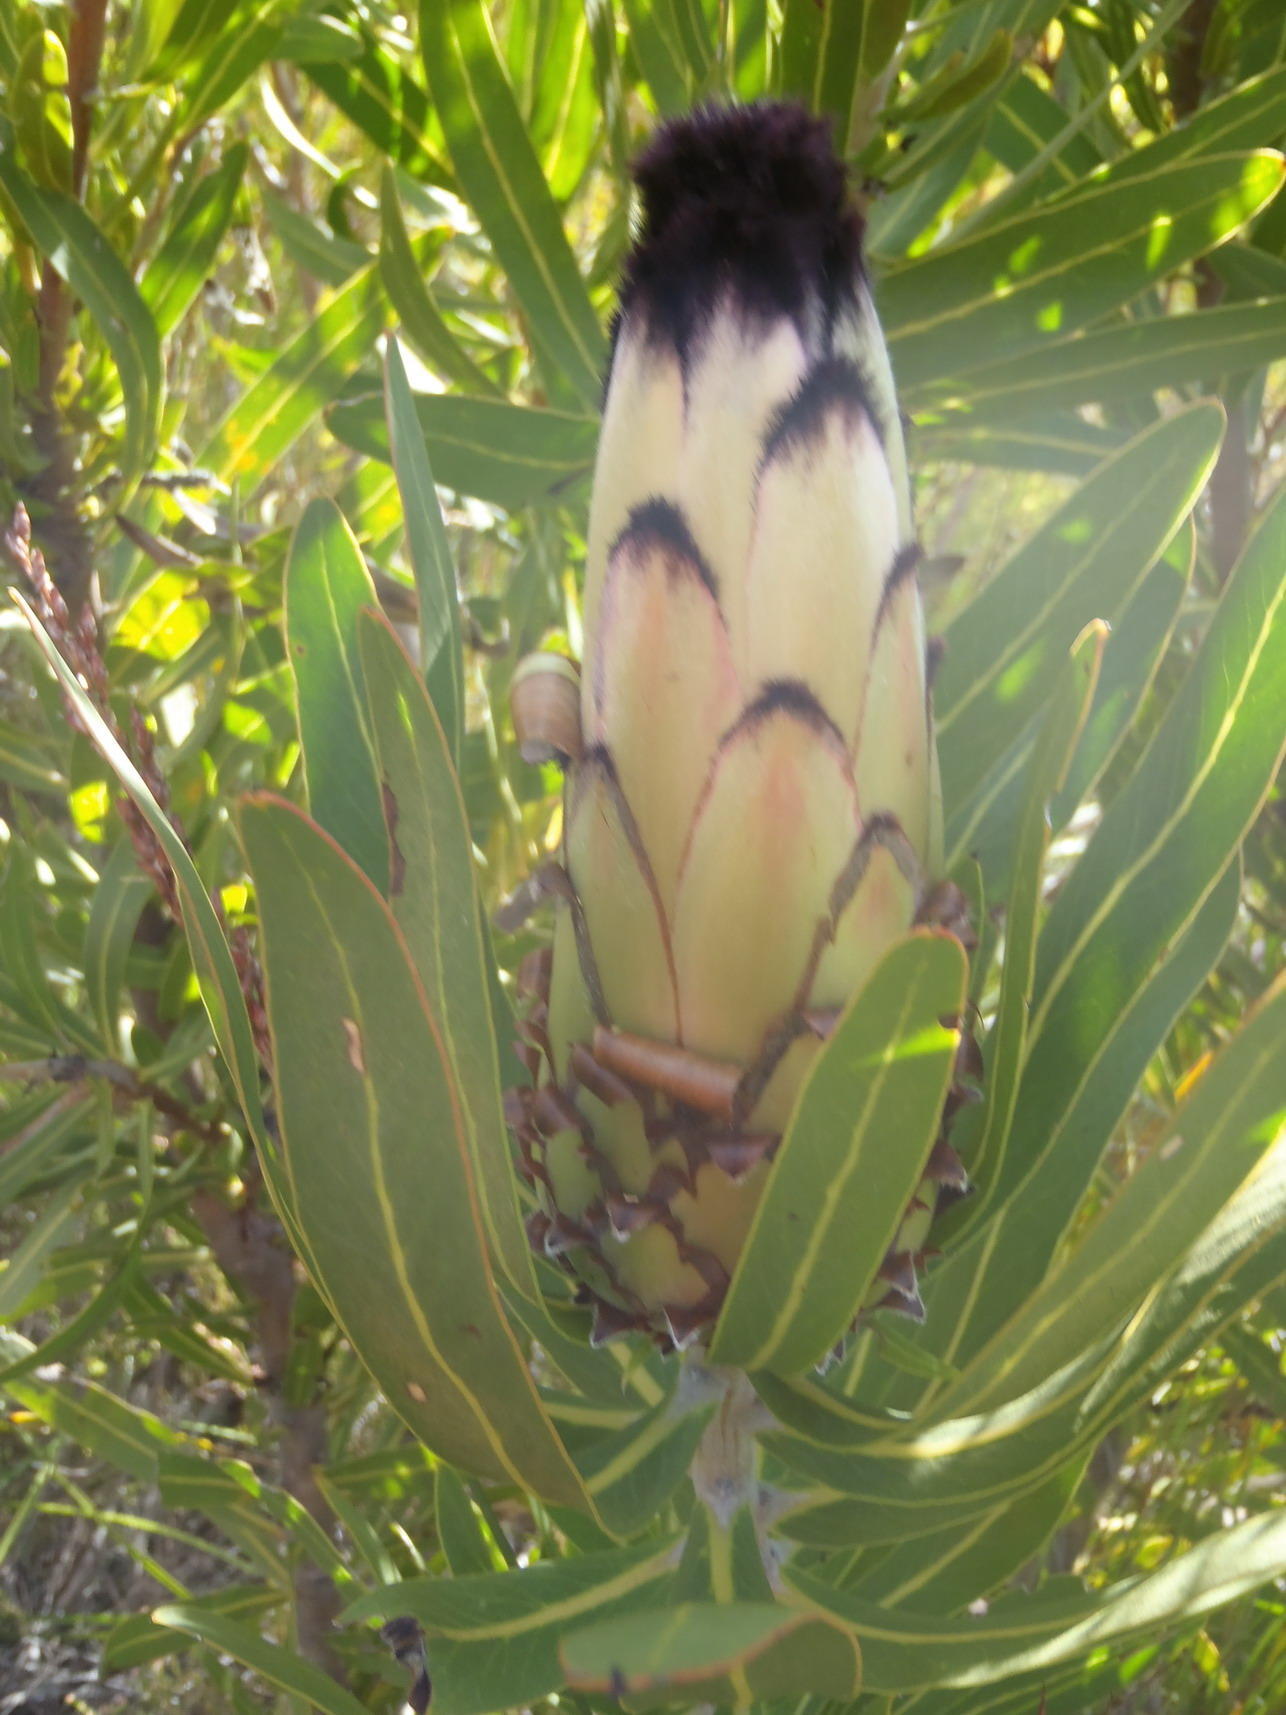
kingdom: Plantae
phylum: Tracheophyta
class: Magnoliopsida
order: Proteales
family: Proteaceae
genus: Protea
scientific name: Protea neriifolia
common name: Blue sugarbush
